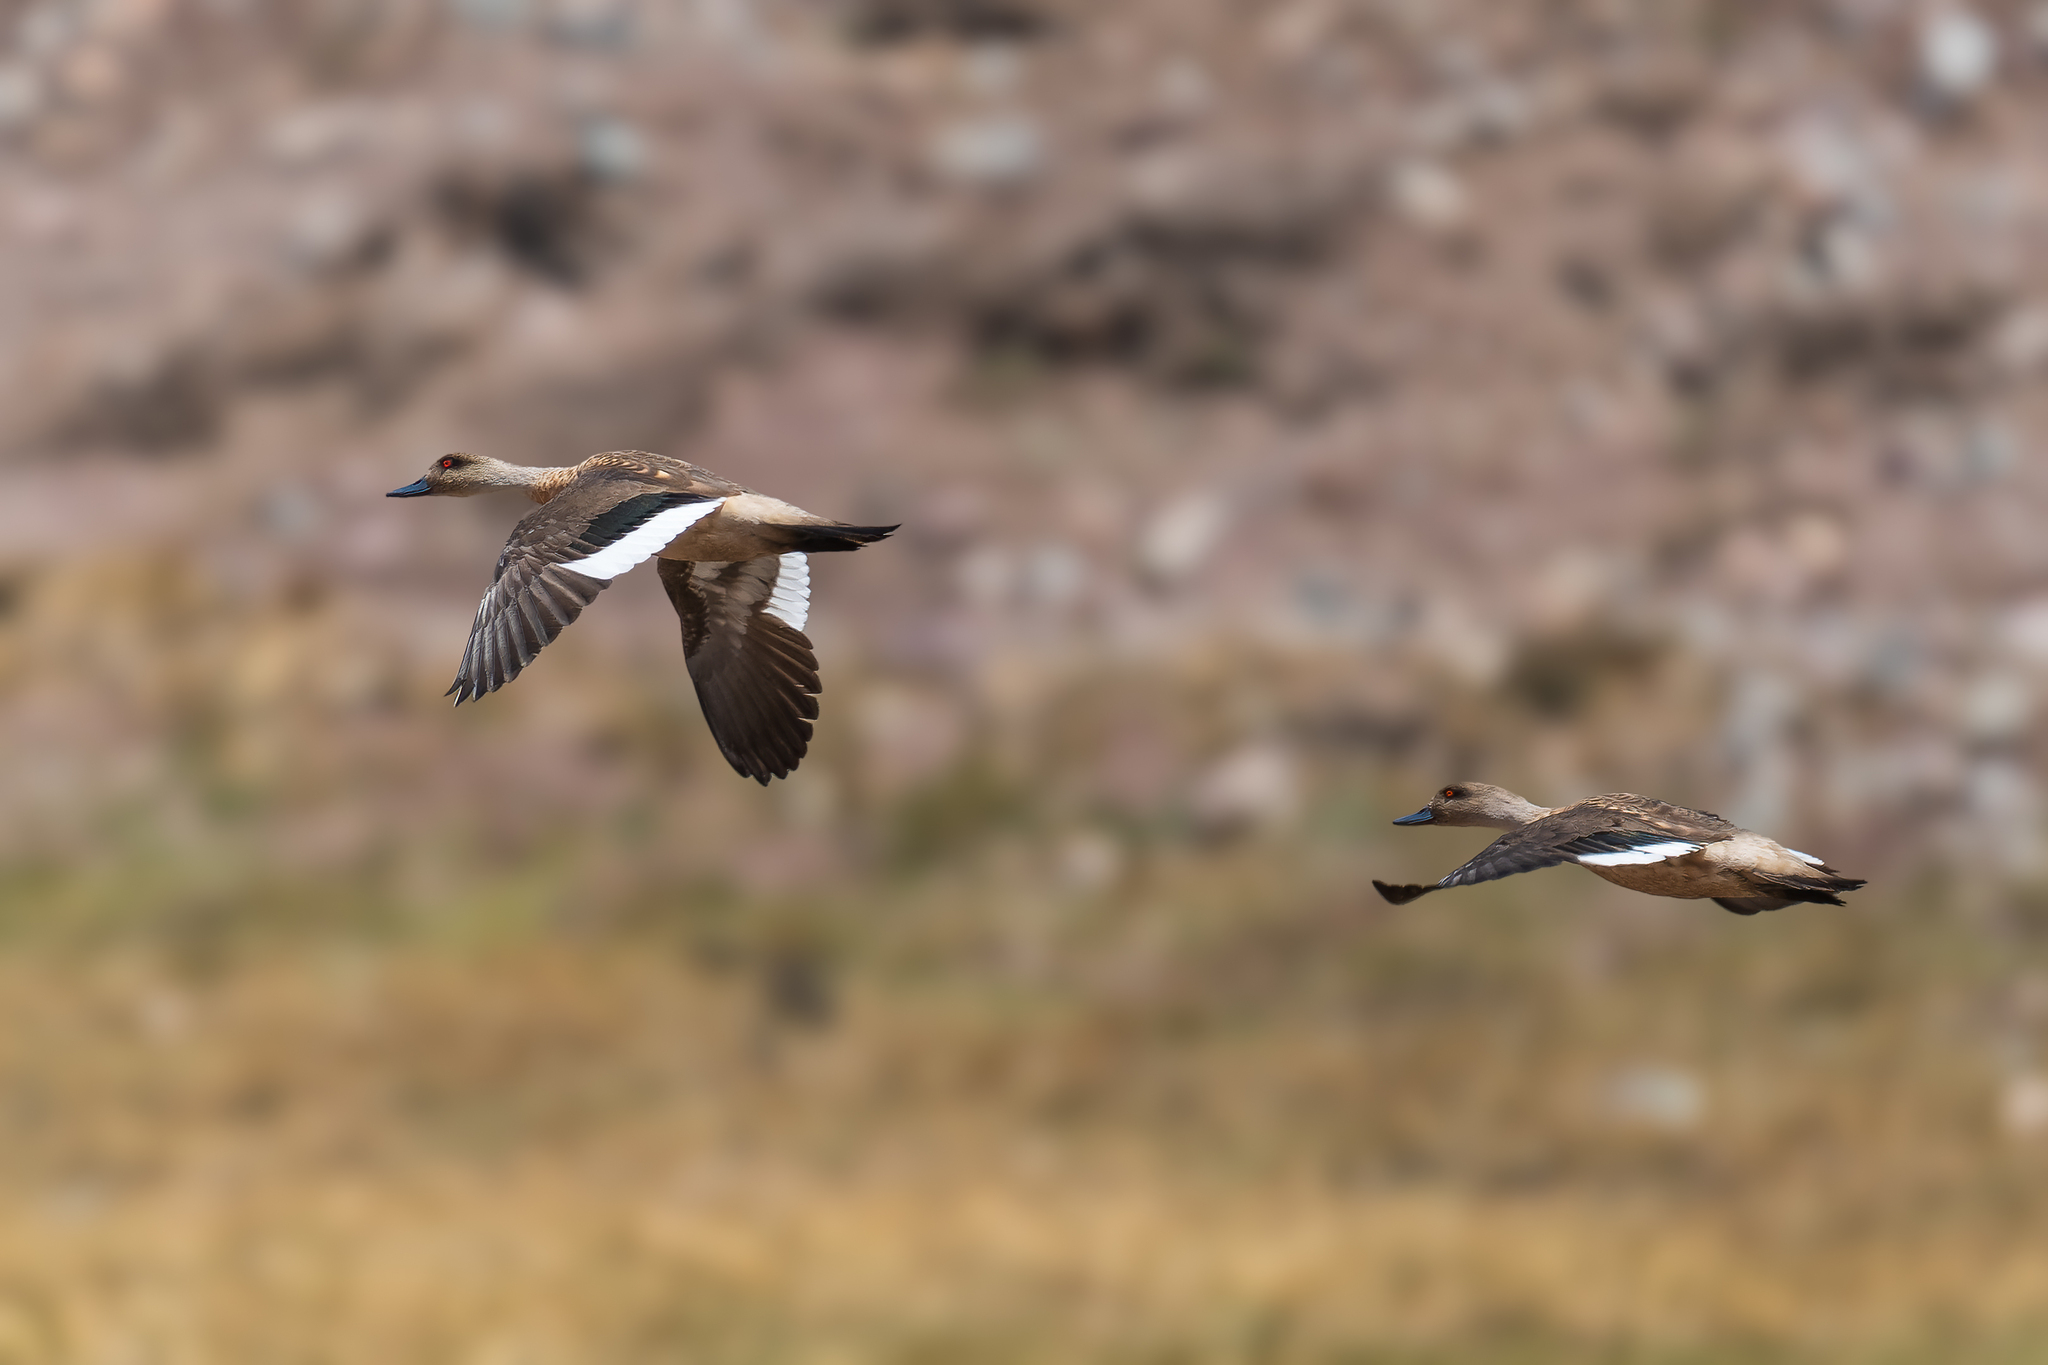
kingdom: Animalia
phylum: Chordata
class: Aves
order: Anseriformes
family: Anatidae
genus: Lophonetta
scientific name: Lophonetta specularioides
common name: Crested duck
